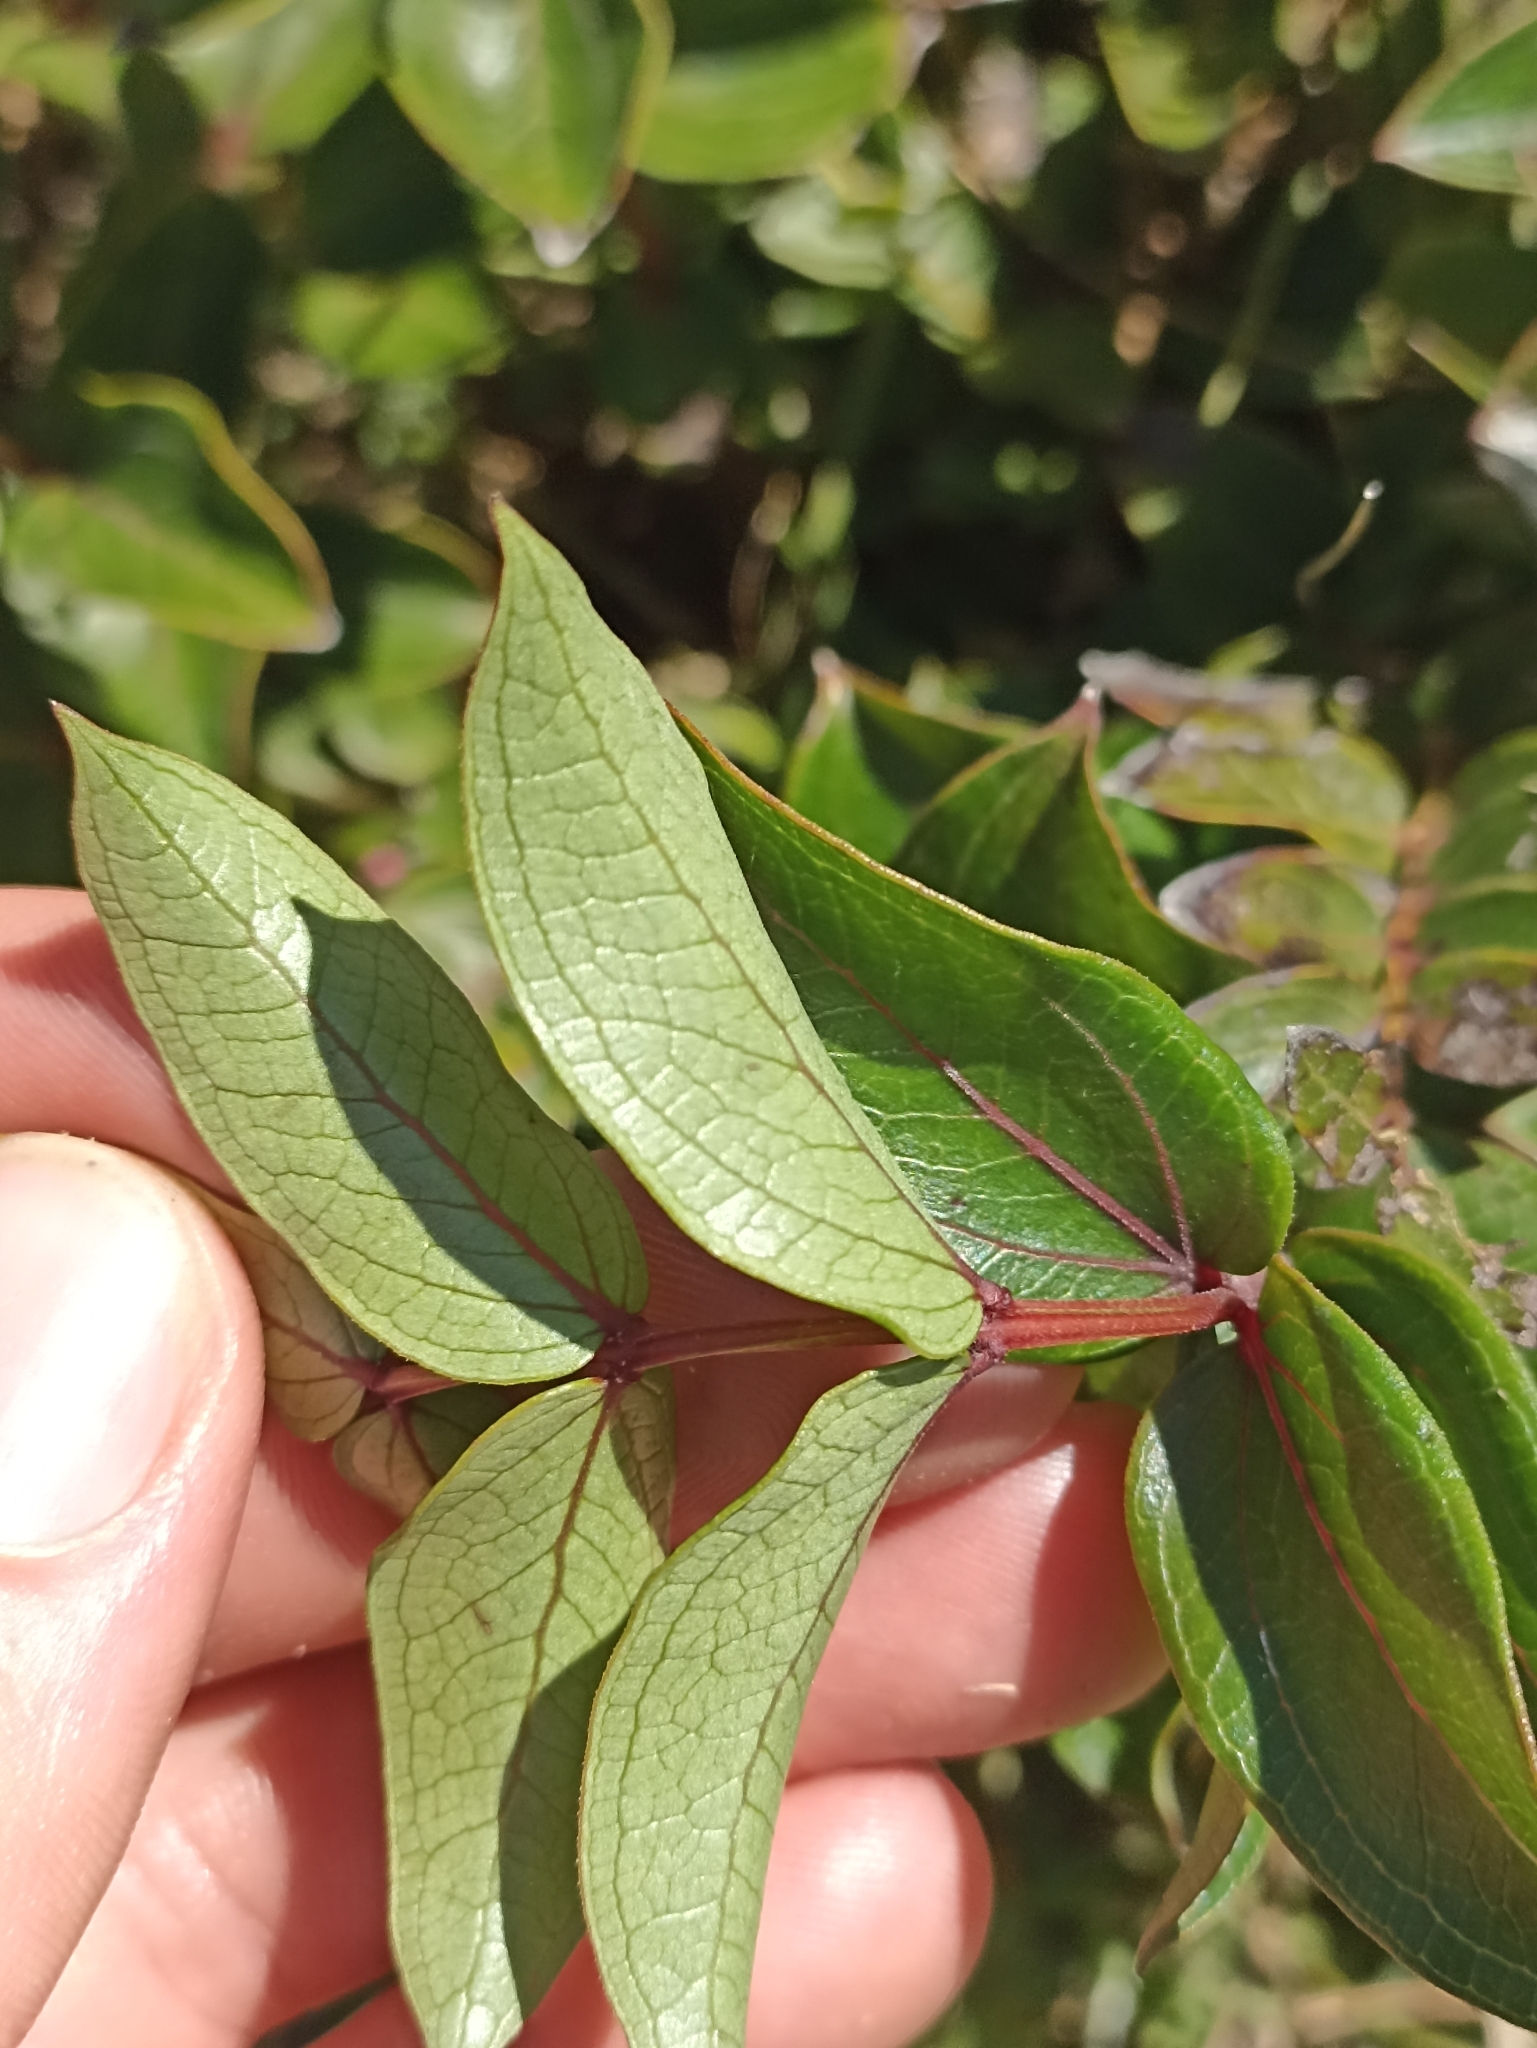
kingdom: Plantae
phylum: Tracheophyta
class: Magnoliopsida
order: Cucurbitales
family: Coriariaceae
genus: Coriaria
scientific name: Coriaria sarmentosa
